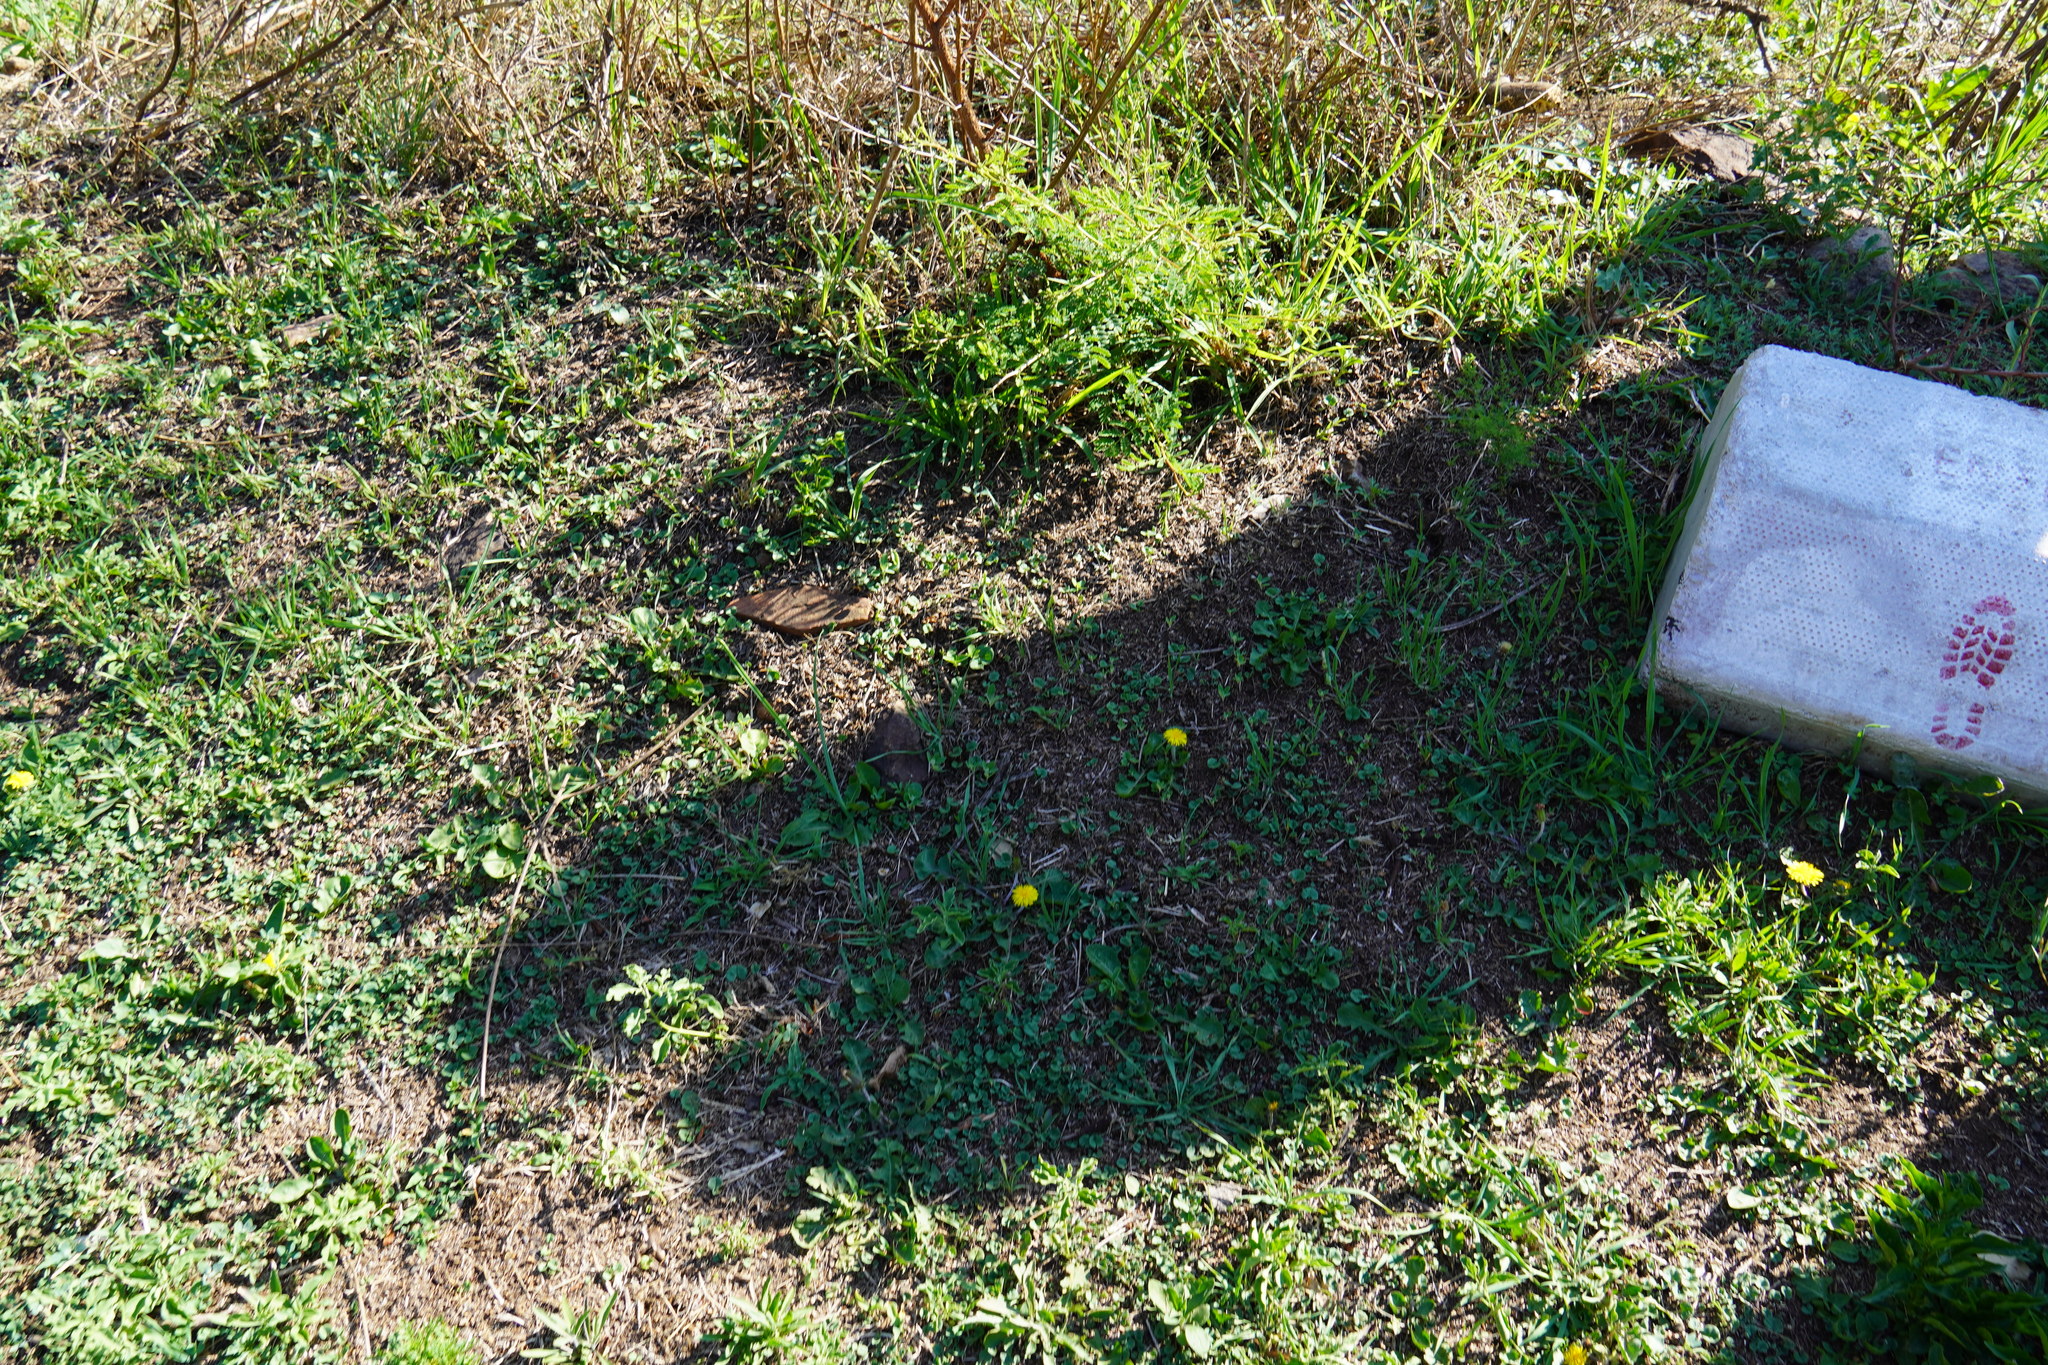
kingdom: Plantae
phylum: Tracheophyta
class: Magnoliopsida
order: Asterales
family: Asteraceae
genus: Taraxacum
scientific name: Taraxacum officinale
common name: Common dandelion
